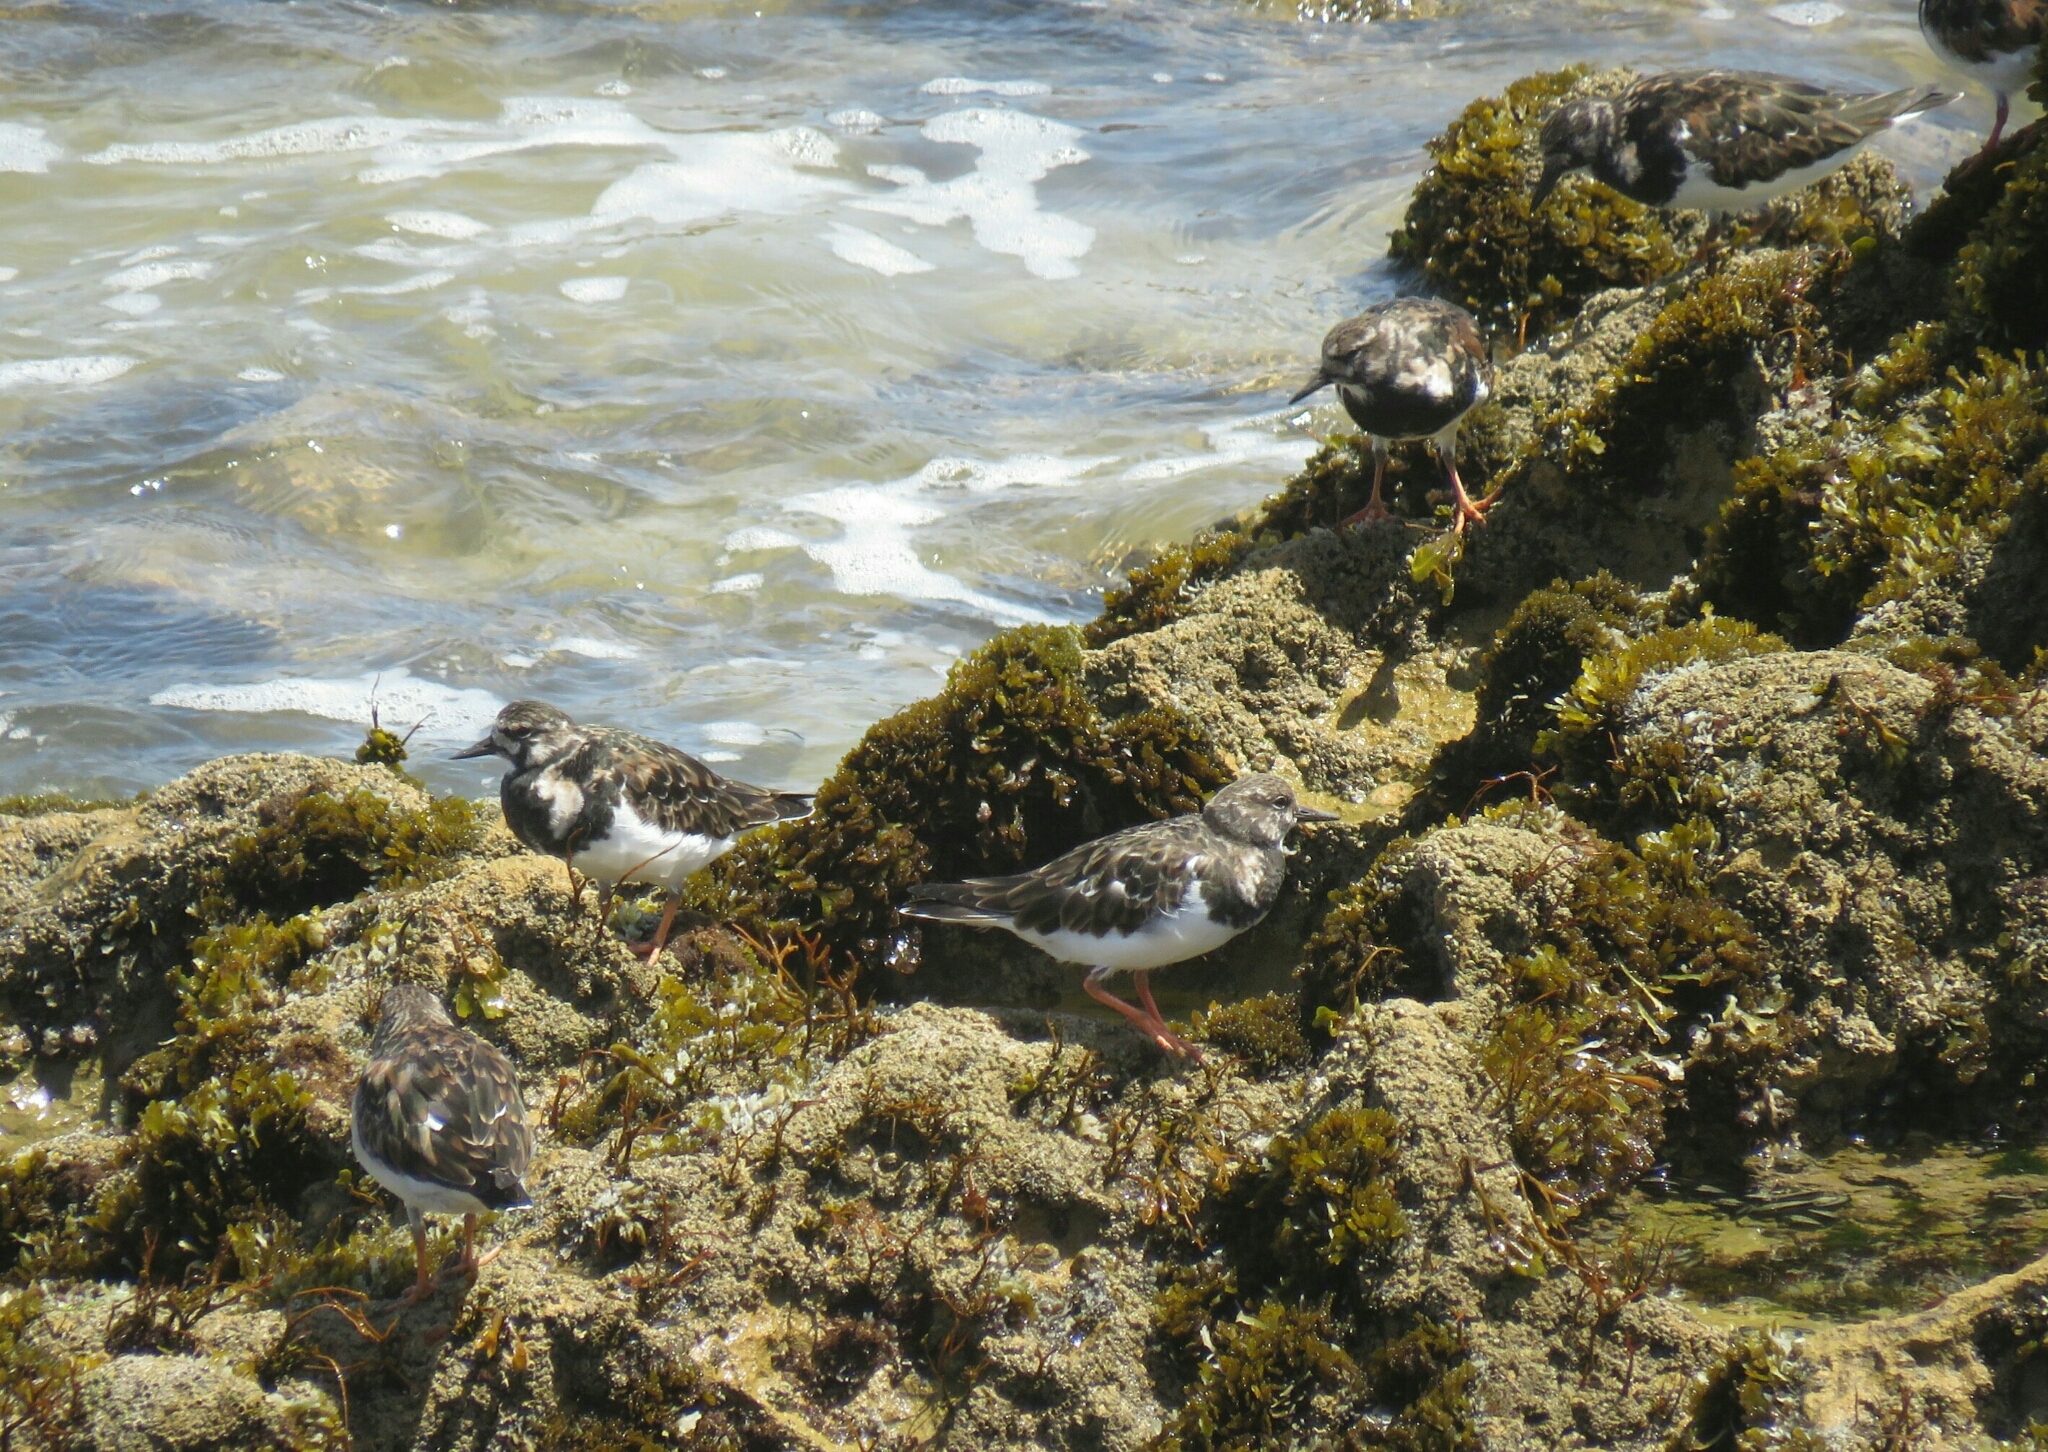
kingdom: Animalia
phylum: Chordata
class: Aves
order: Charadriiformes
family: Scolopacidae
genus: Arenaria
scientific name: Arenaria interpres
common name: Ruddy turnstone
